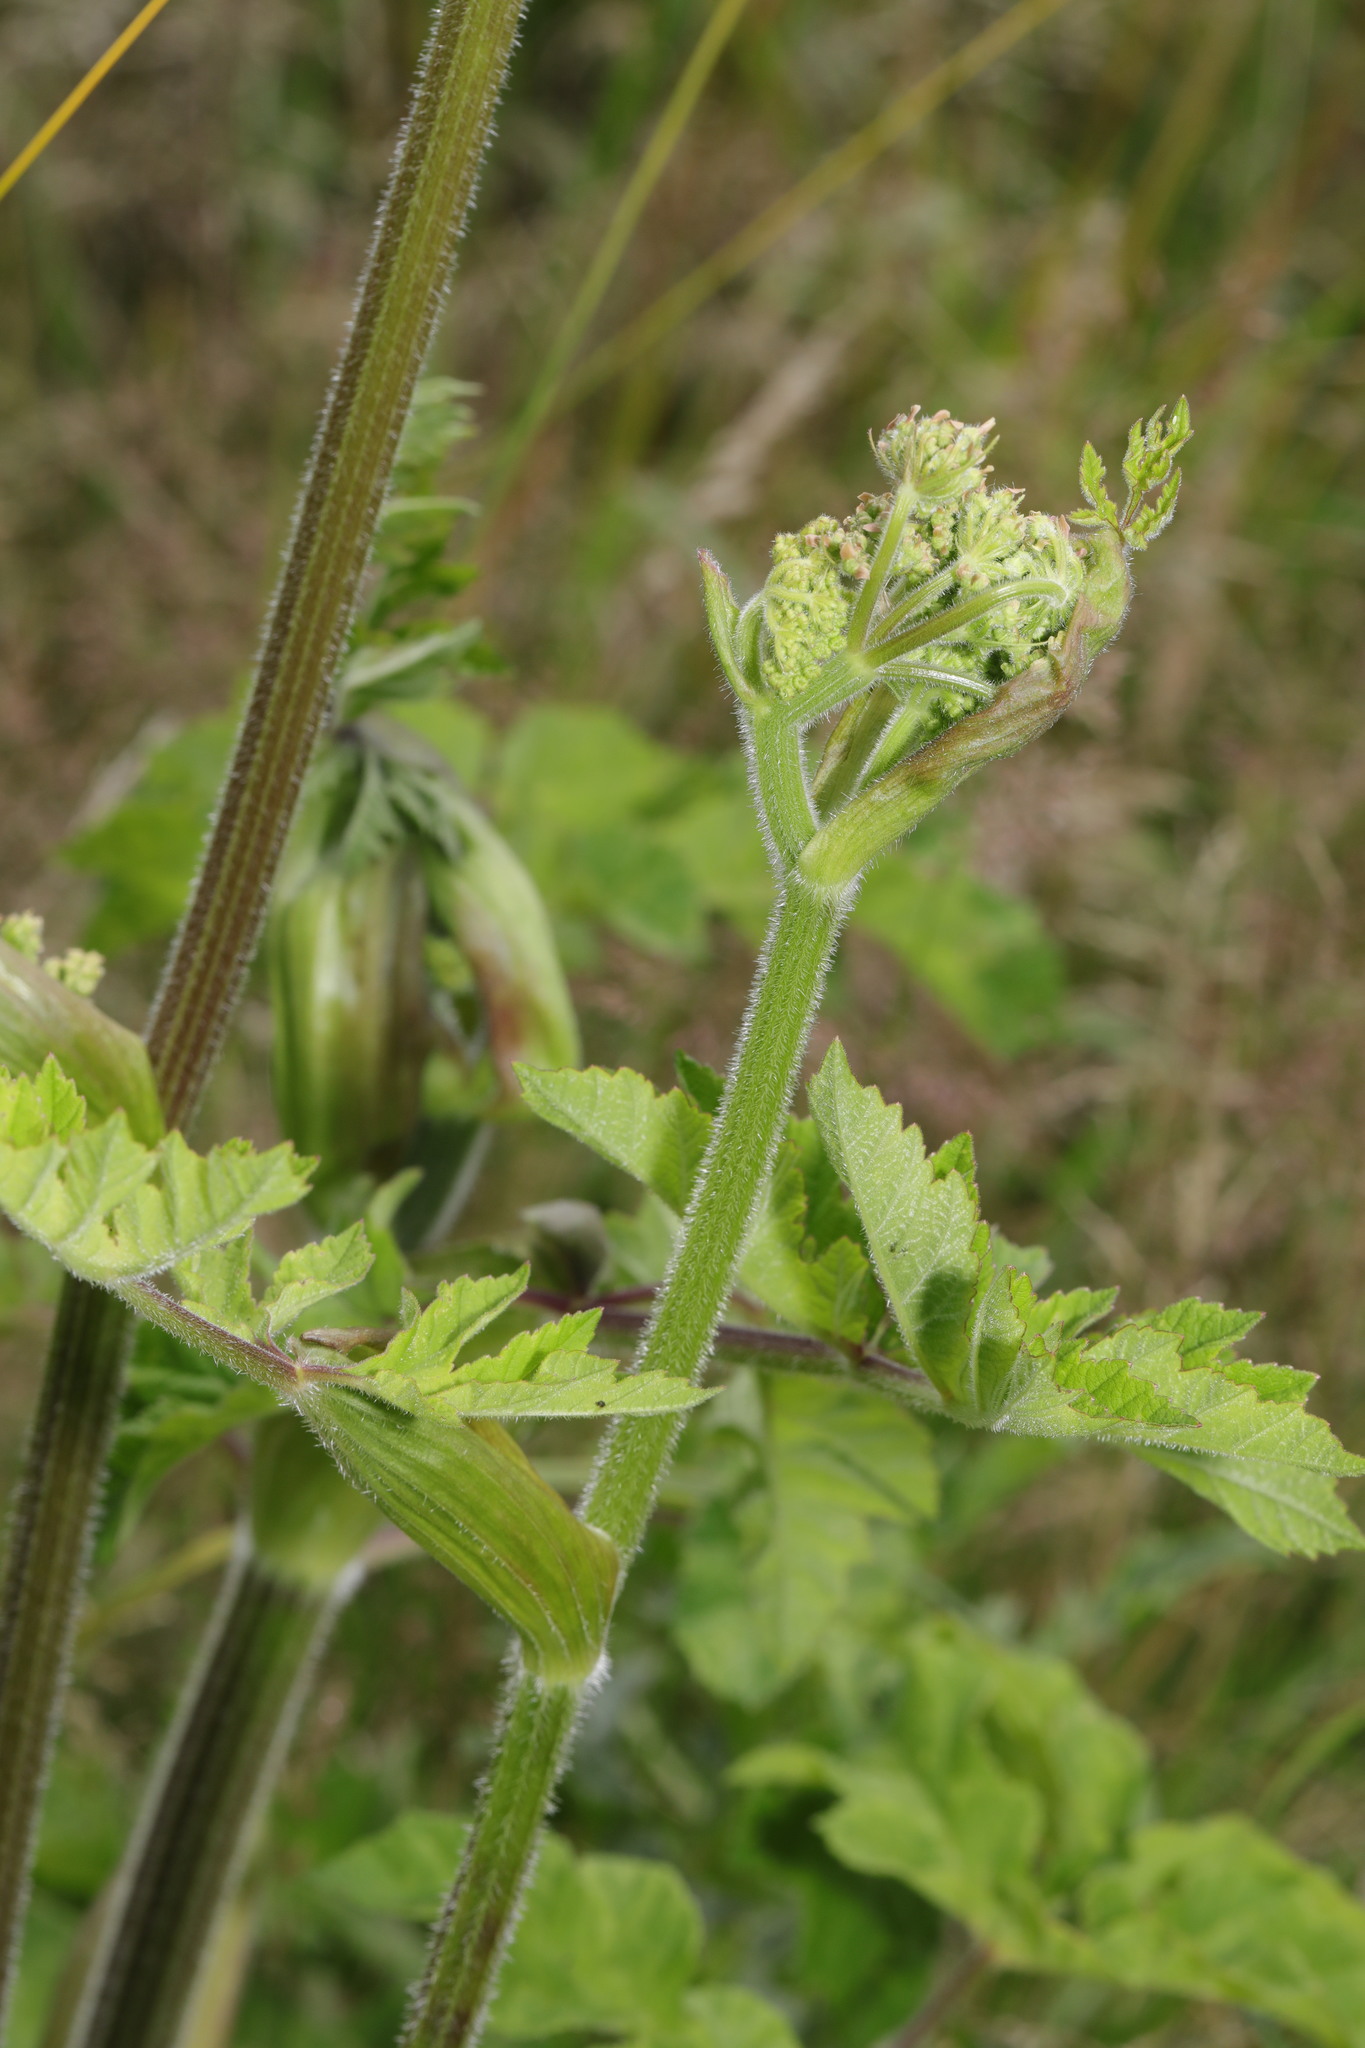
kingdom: Plantae
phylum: Tracheophyta
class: Magnoliopsida
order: Apiales
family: Apiaceae
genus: Heracleum
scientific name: Heracleum sphondylium
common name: Hogweed
